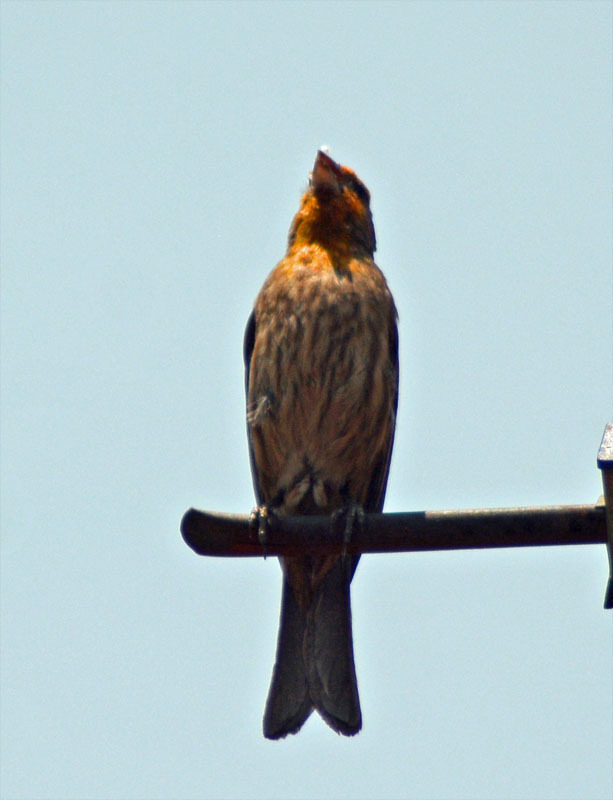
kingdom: Animalia
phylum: Chordata
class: Aves
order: Passeriformes
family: Fringillidae
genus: Haemorhous
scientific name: Haemorhous mexicanus
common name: House finch
